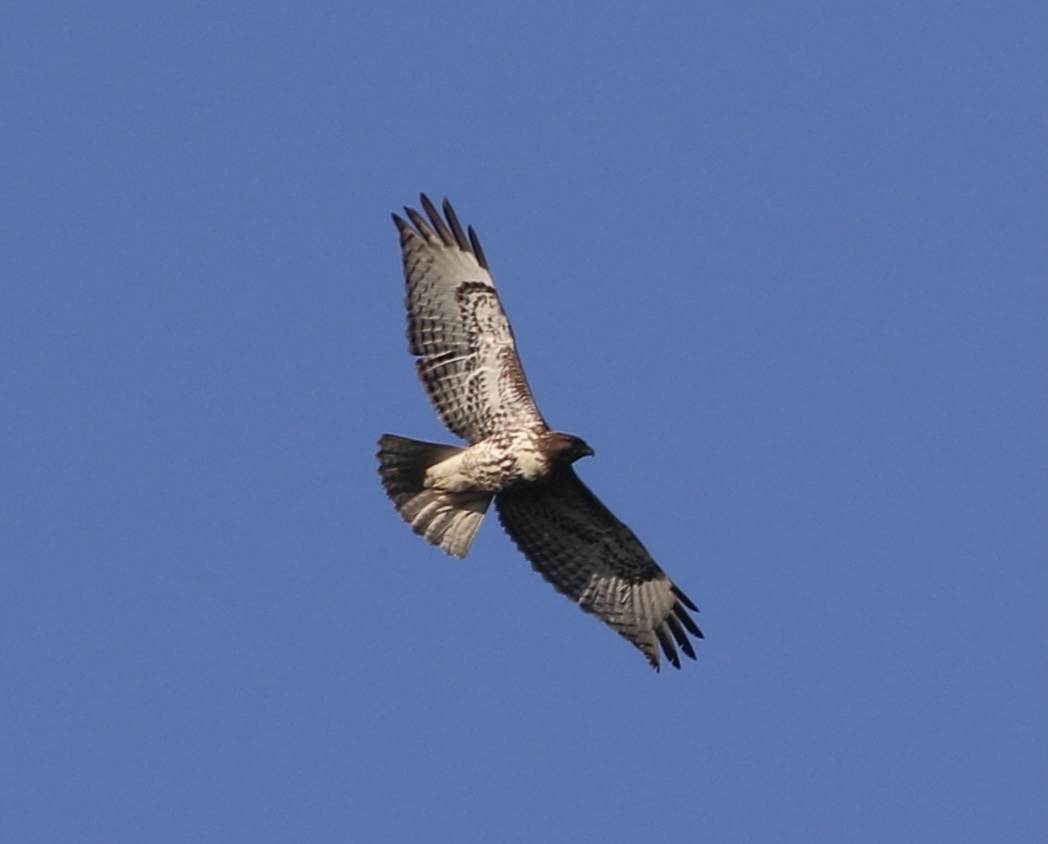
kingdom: Animalia
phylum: Chordata
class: Aves
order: Accipitriformes
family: Accipitridae
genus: Buteo
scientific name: Buteo jamaicensis
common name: Red-tailed hawk
